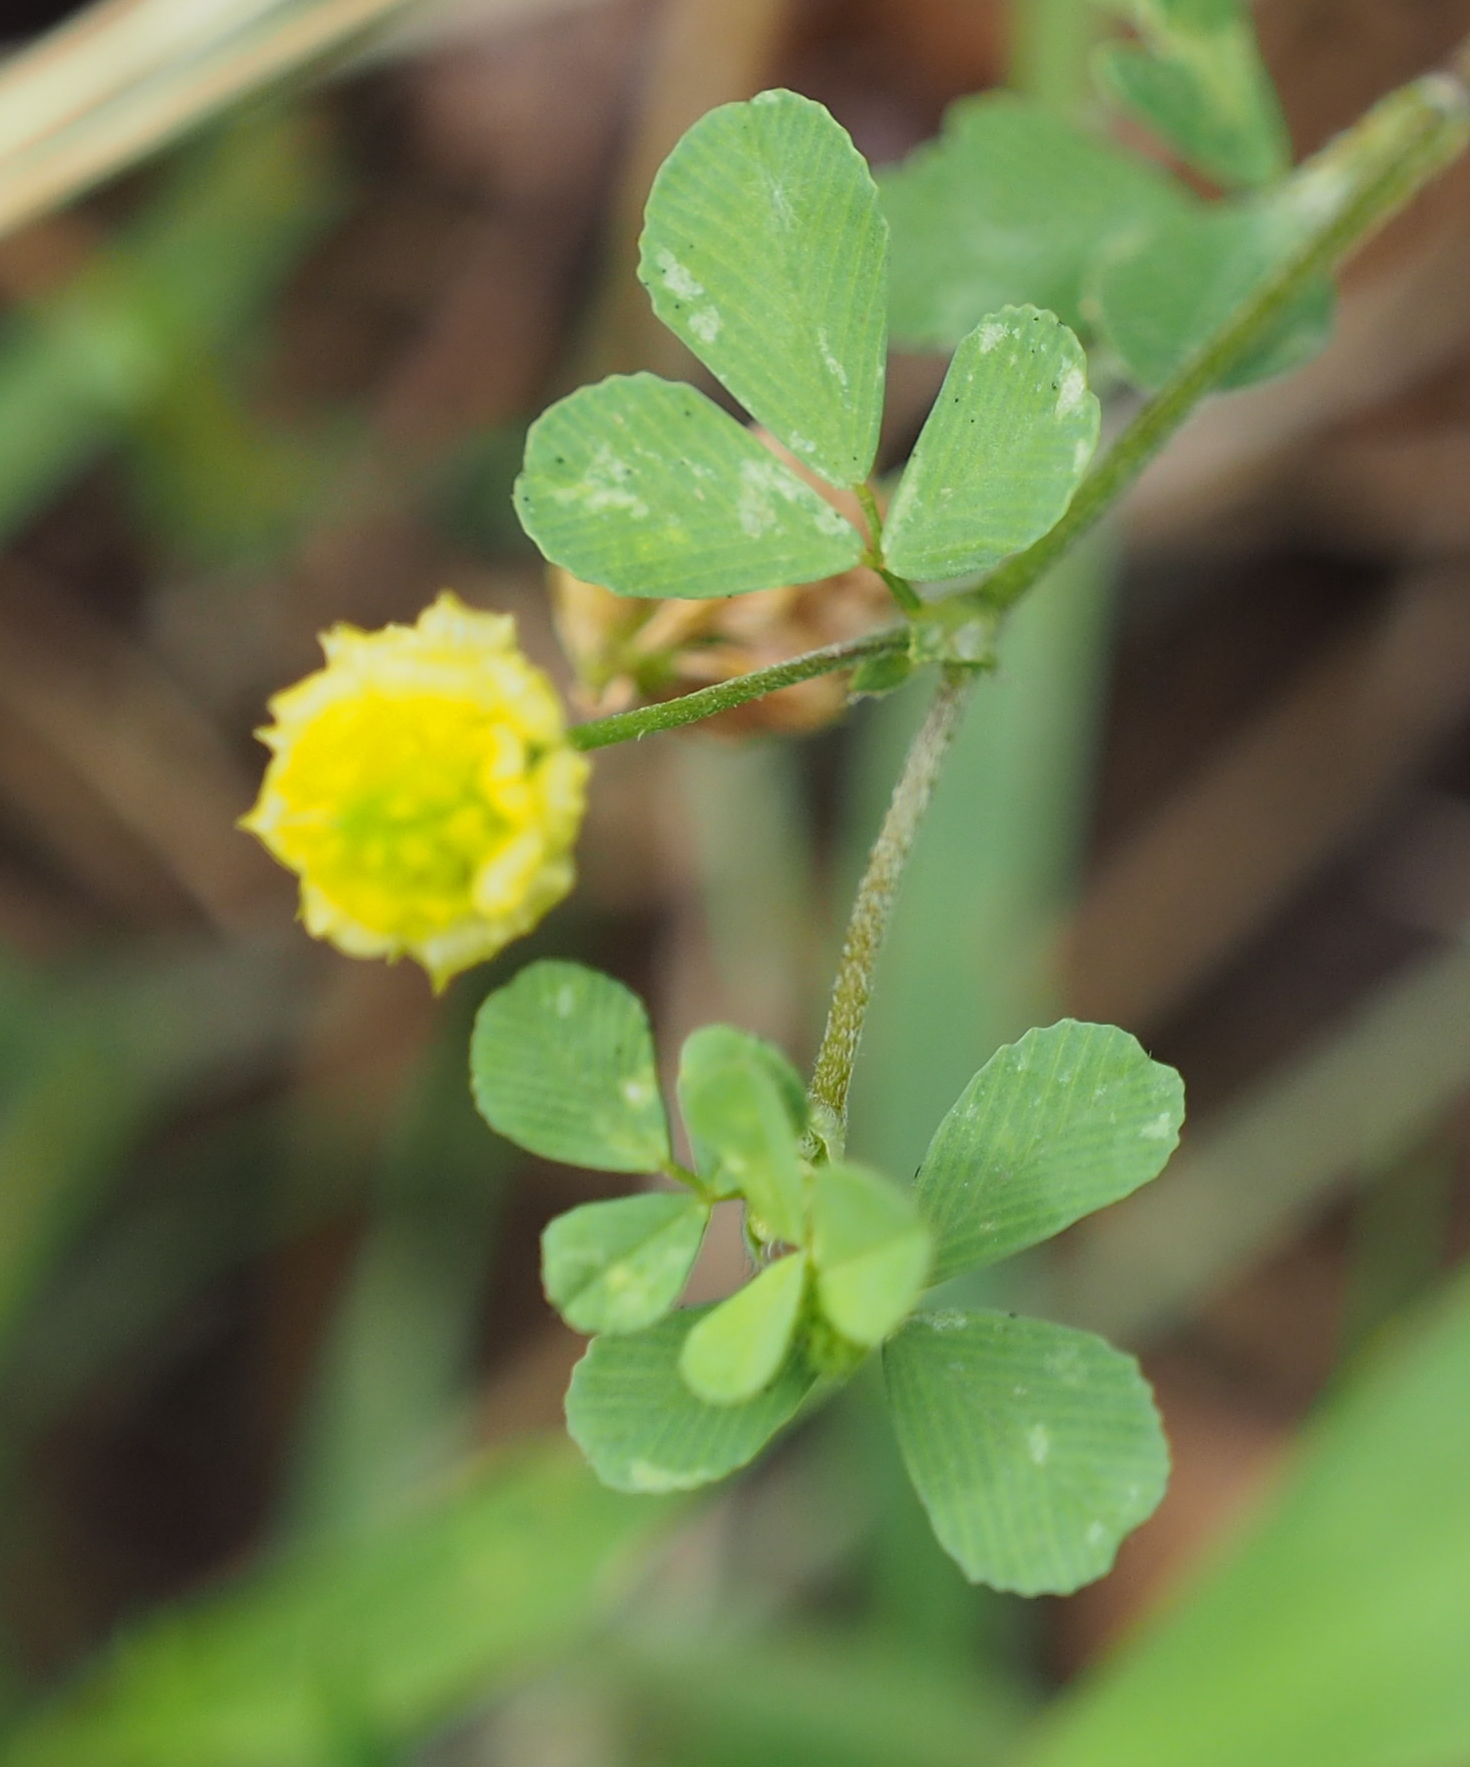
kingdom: Plantae
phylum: Tracheophyta
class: Magnoliopsida
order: Fabales
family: Fabaceae
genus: Trifolium
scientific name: Trifolium campestre
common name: Field clover
